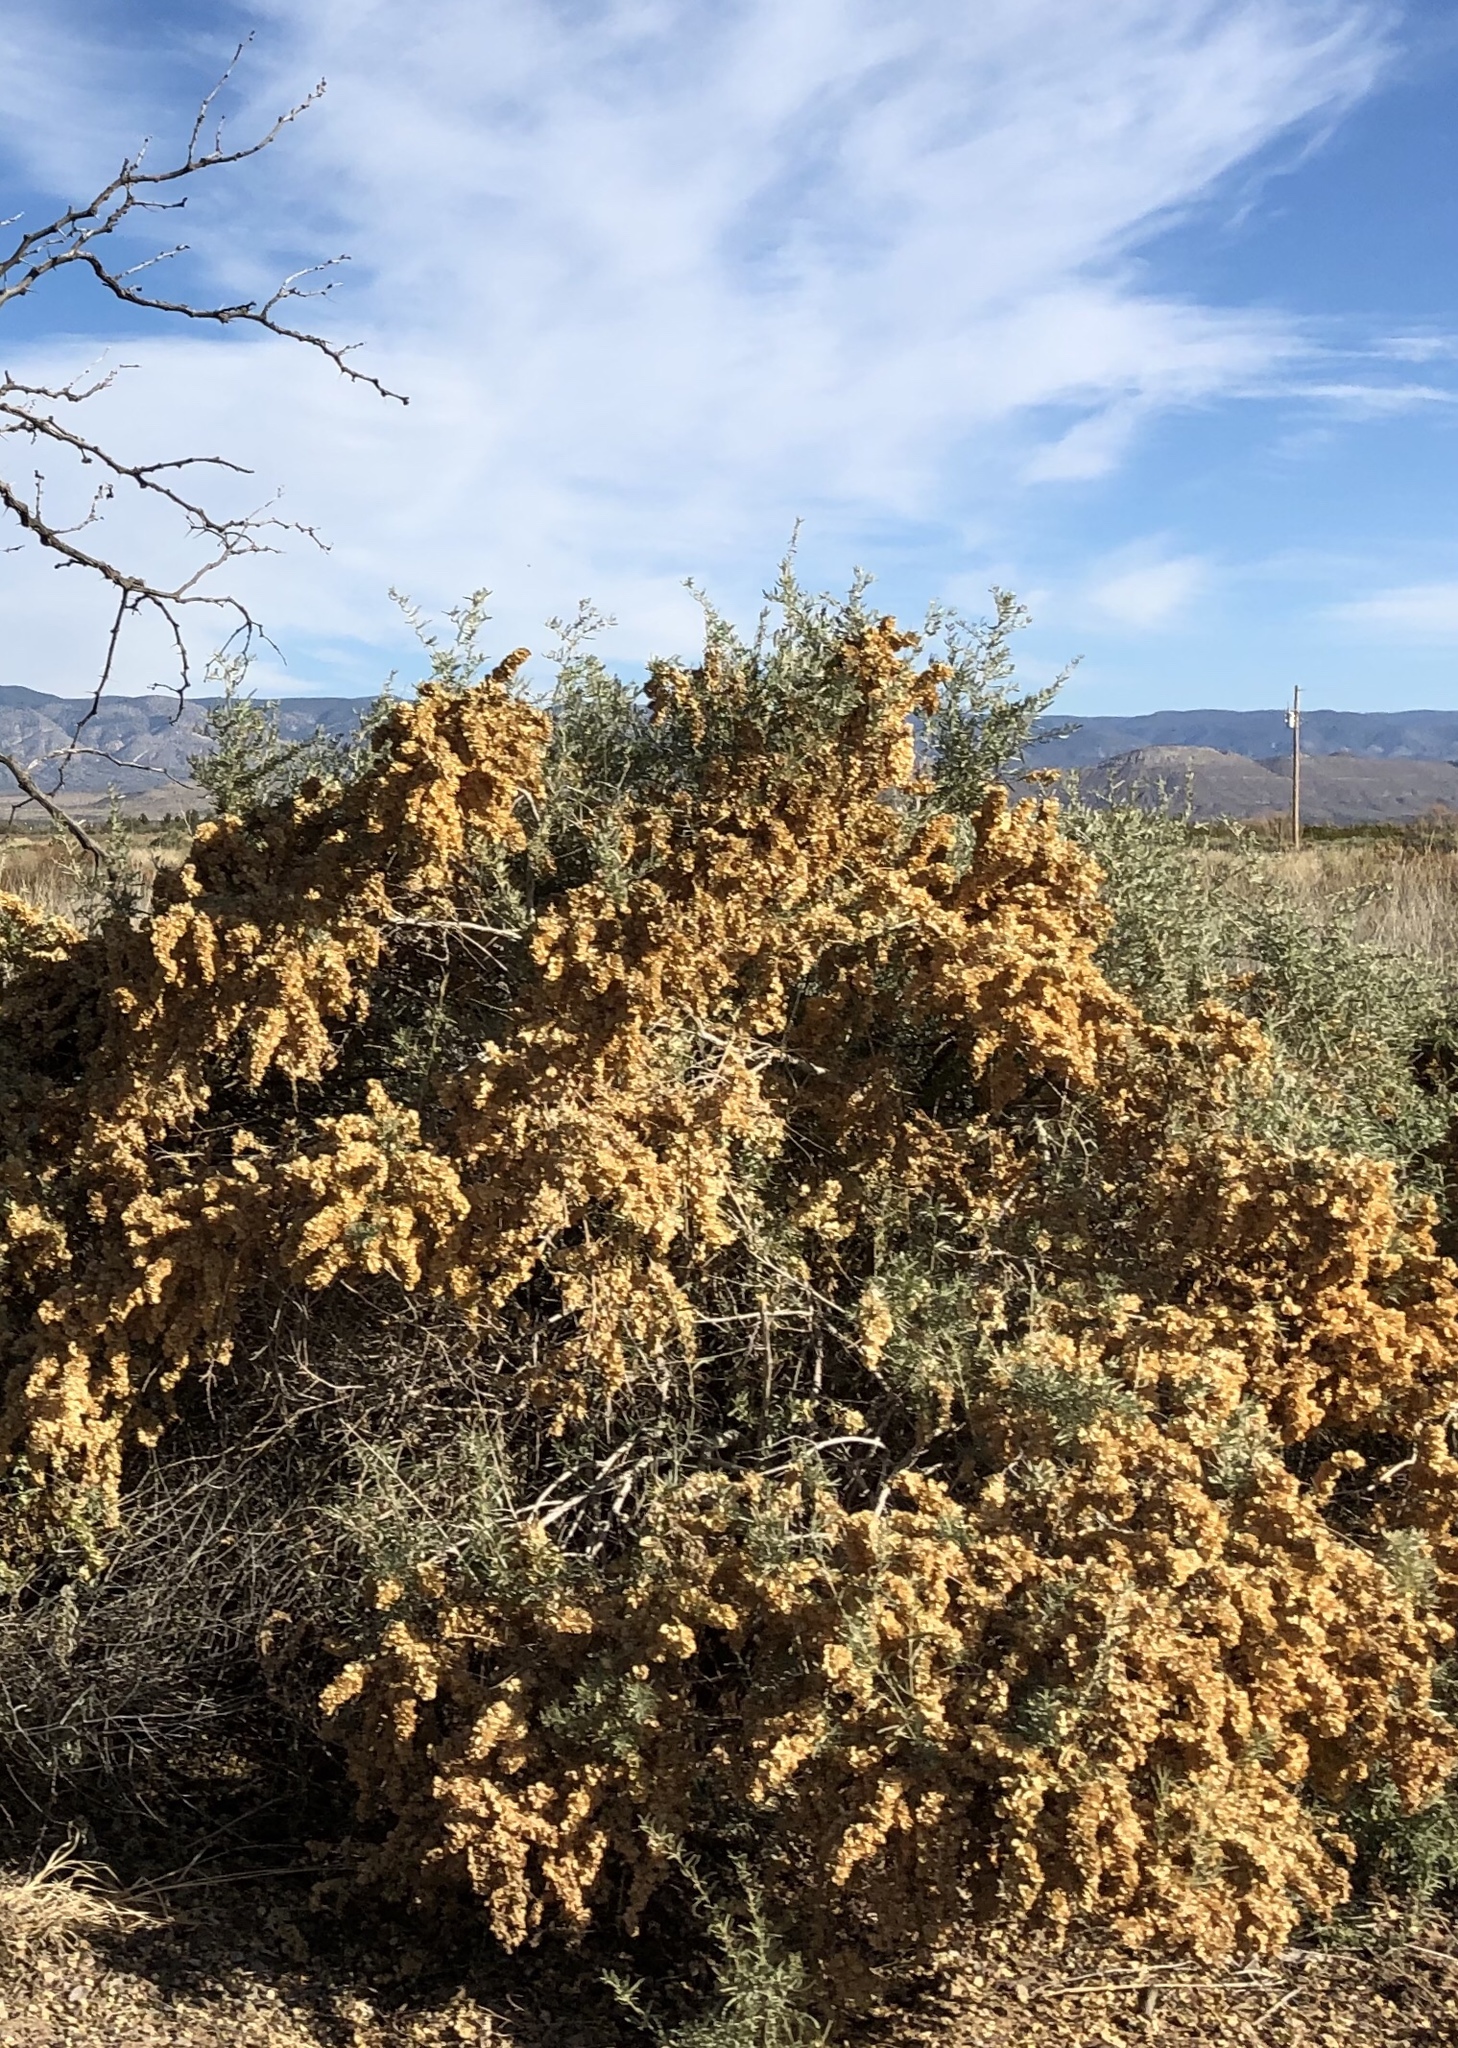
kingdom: Plantae
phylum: Tracheophyta
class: Magnoliopsida
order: Caryophyllales
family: Amaranthaceae
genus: Atriplex
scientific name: Atriplex canescens
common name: Four-wing saltbush
